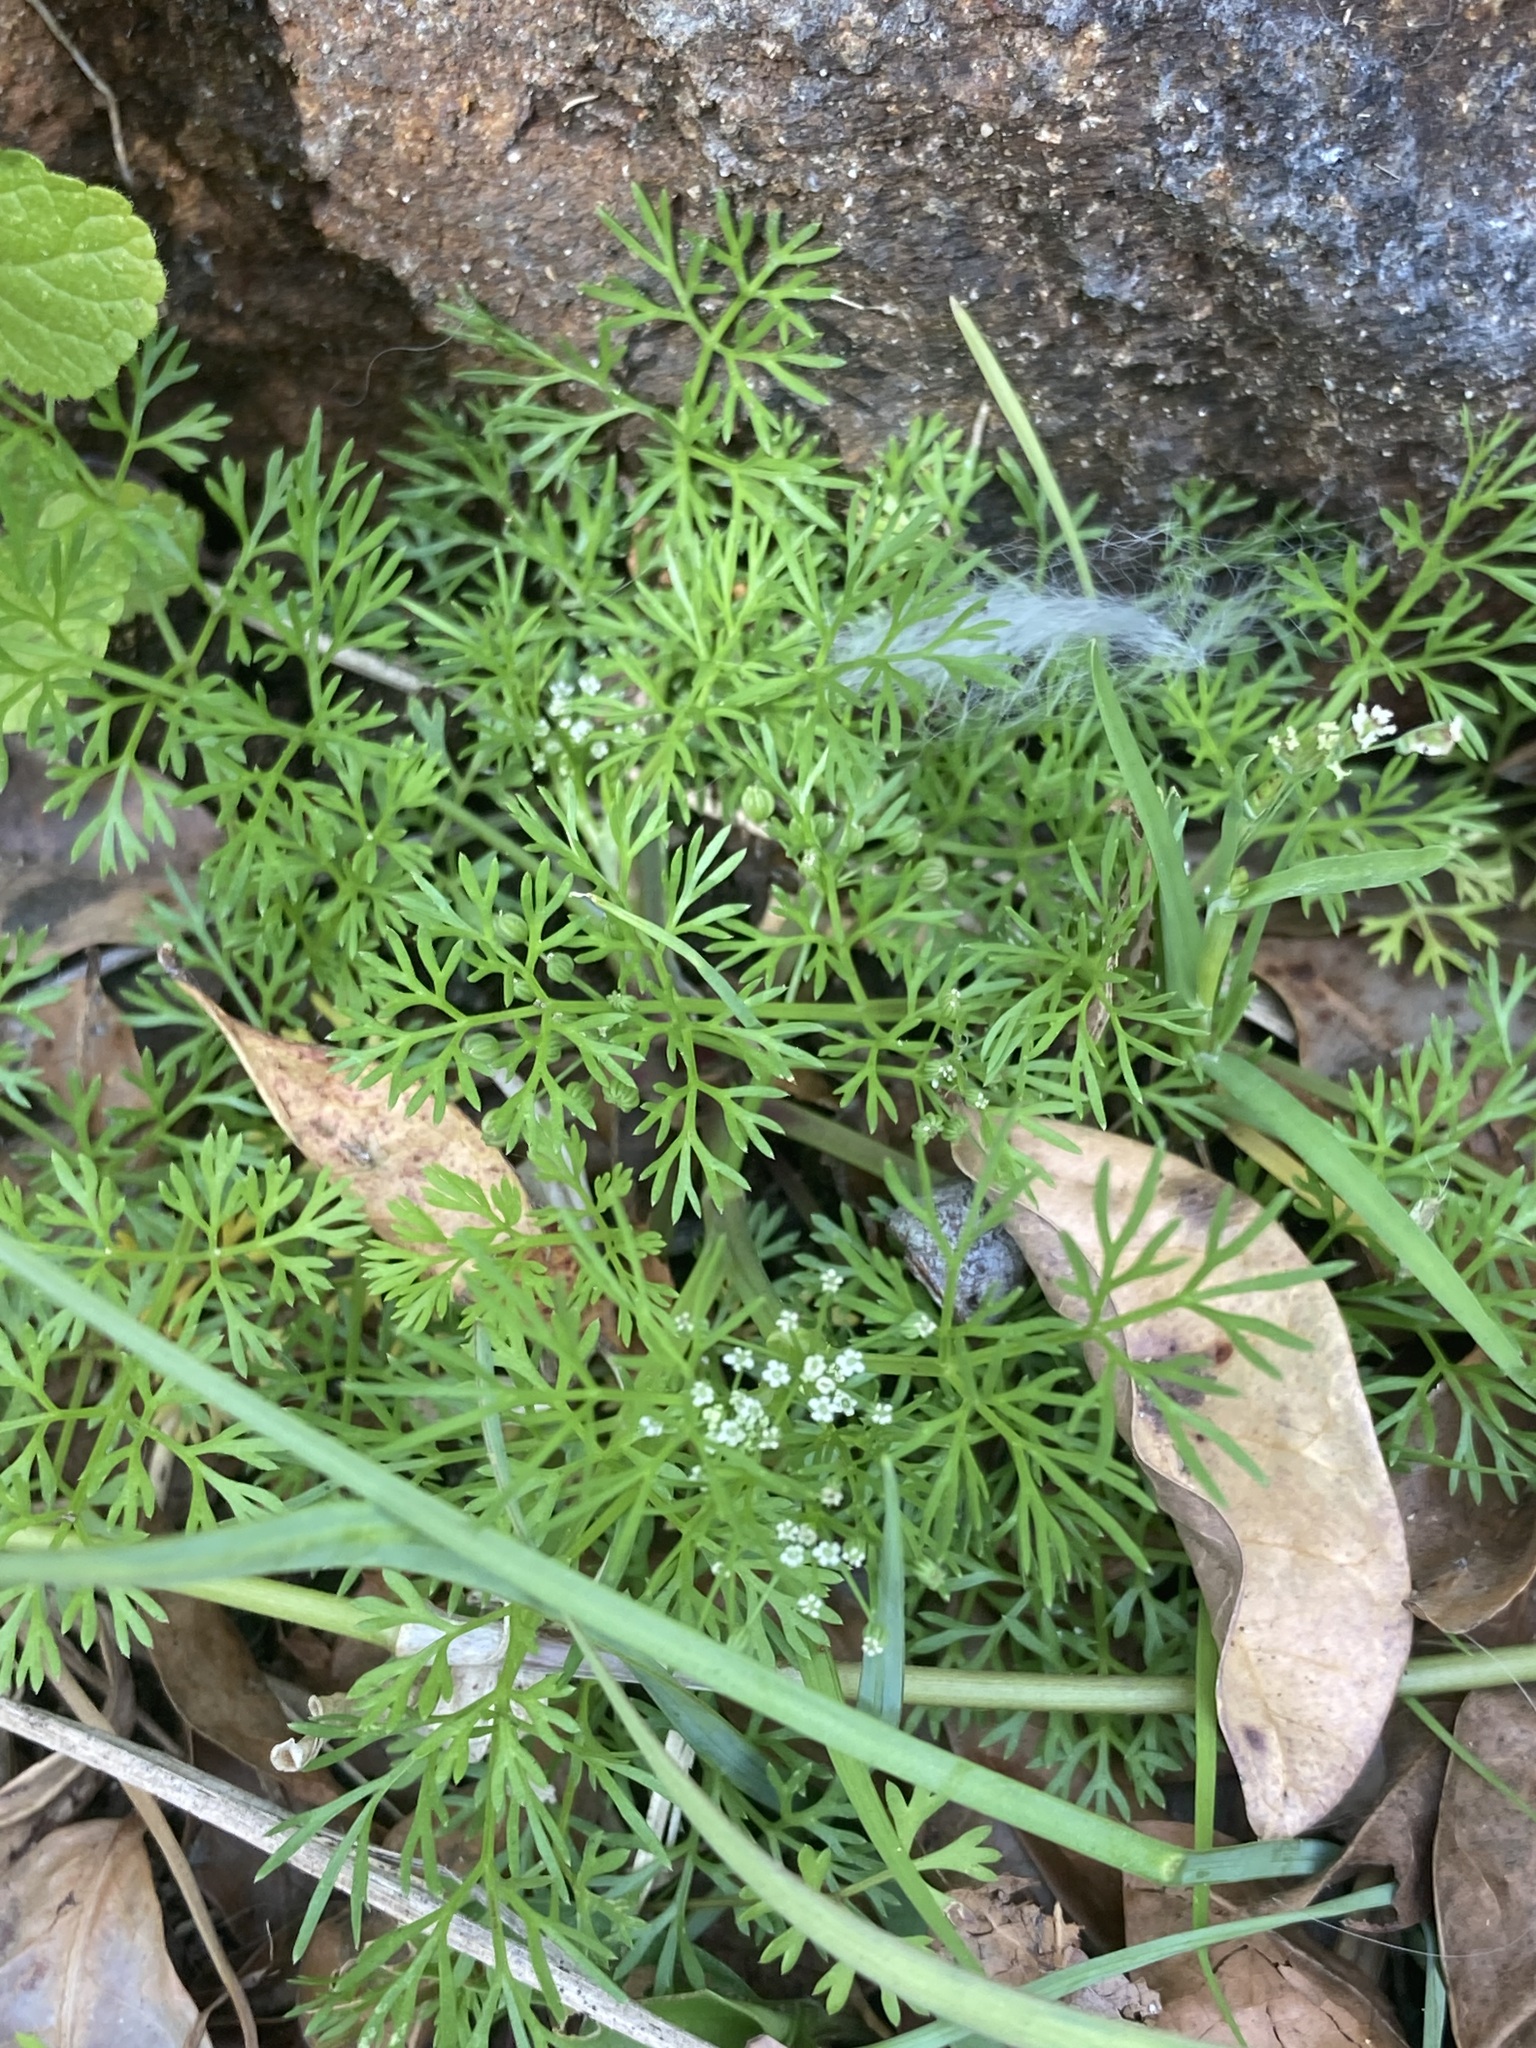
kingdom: Plantae
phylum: Tracheophyta
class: Magnoliopsida
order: Apiales
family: Apiaceae
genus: Cyclospermum
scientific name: Cyclospermum leptophyllum
